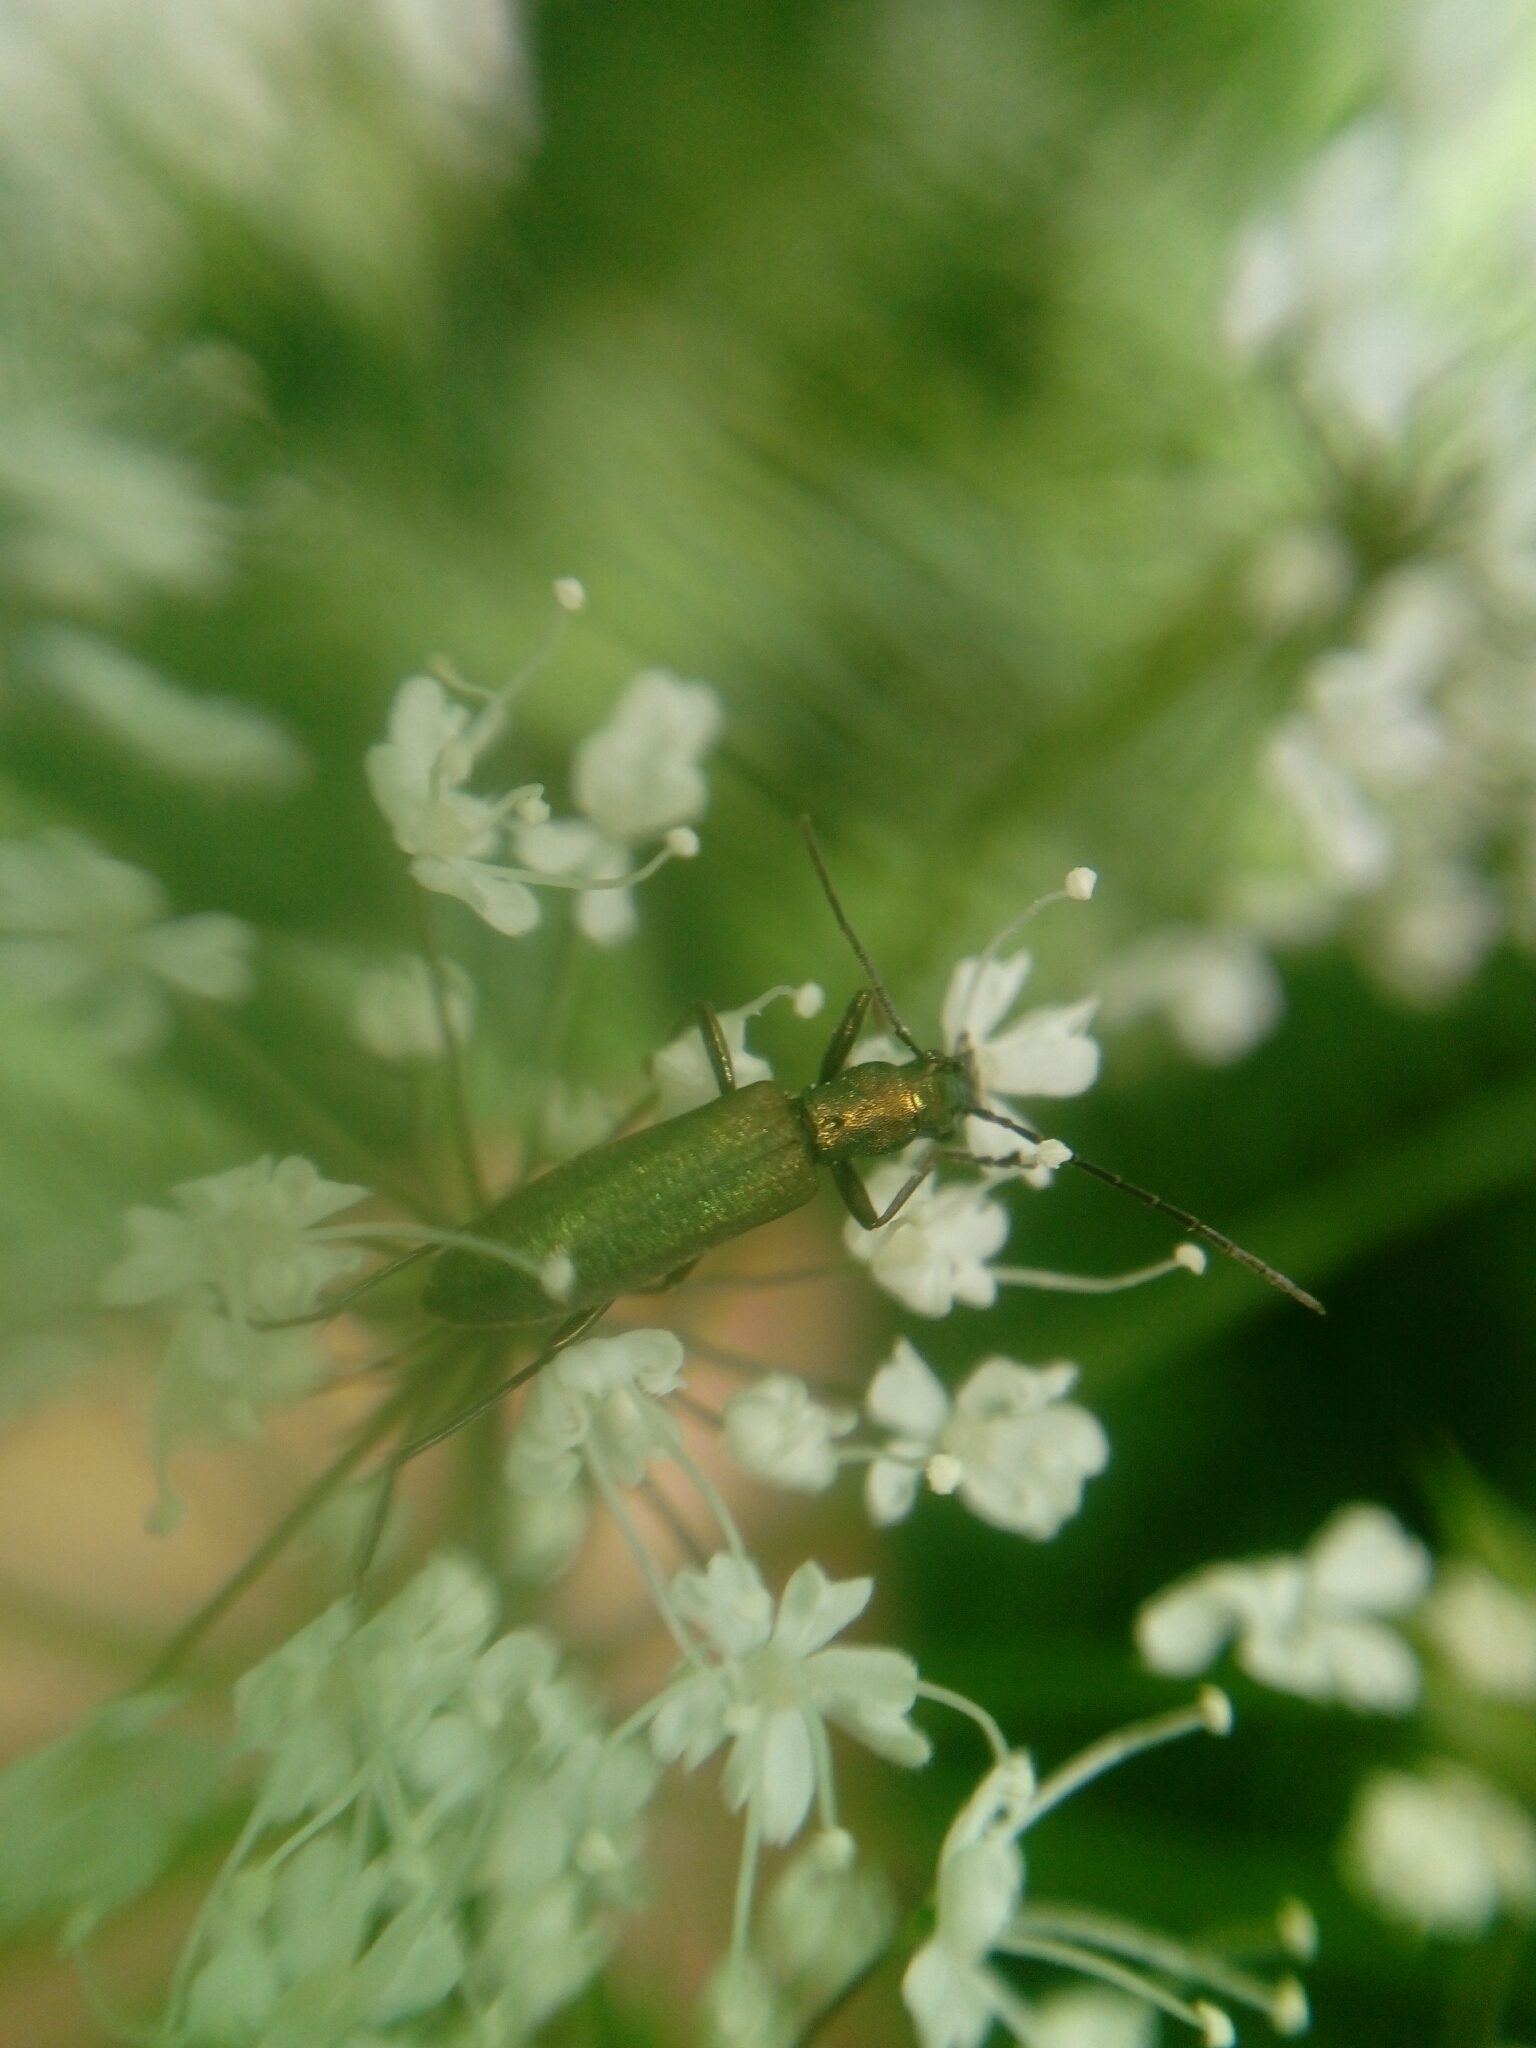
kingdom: Animalia
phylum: Arthropoda
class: Insecta
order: Coleoptera
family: Oedemeridae
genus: Chrysanthia
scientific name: Chrysanthia viridissima
